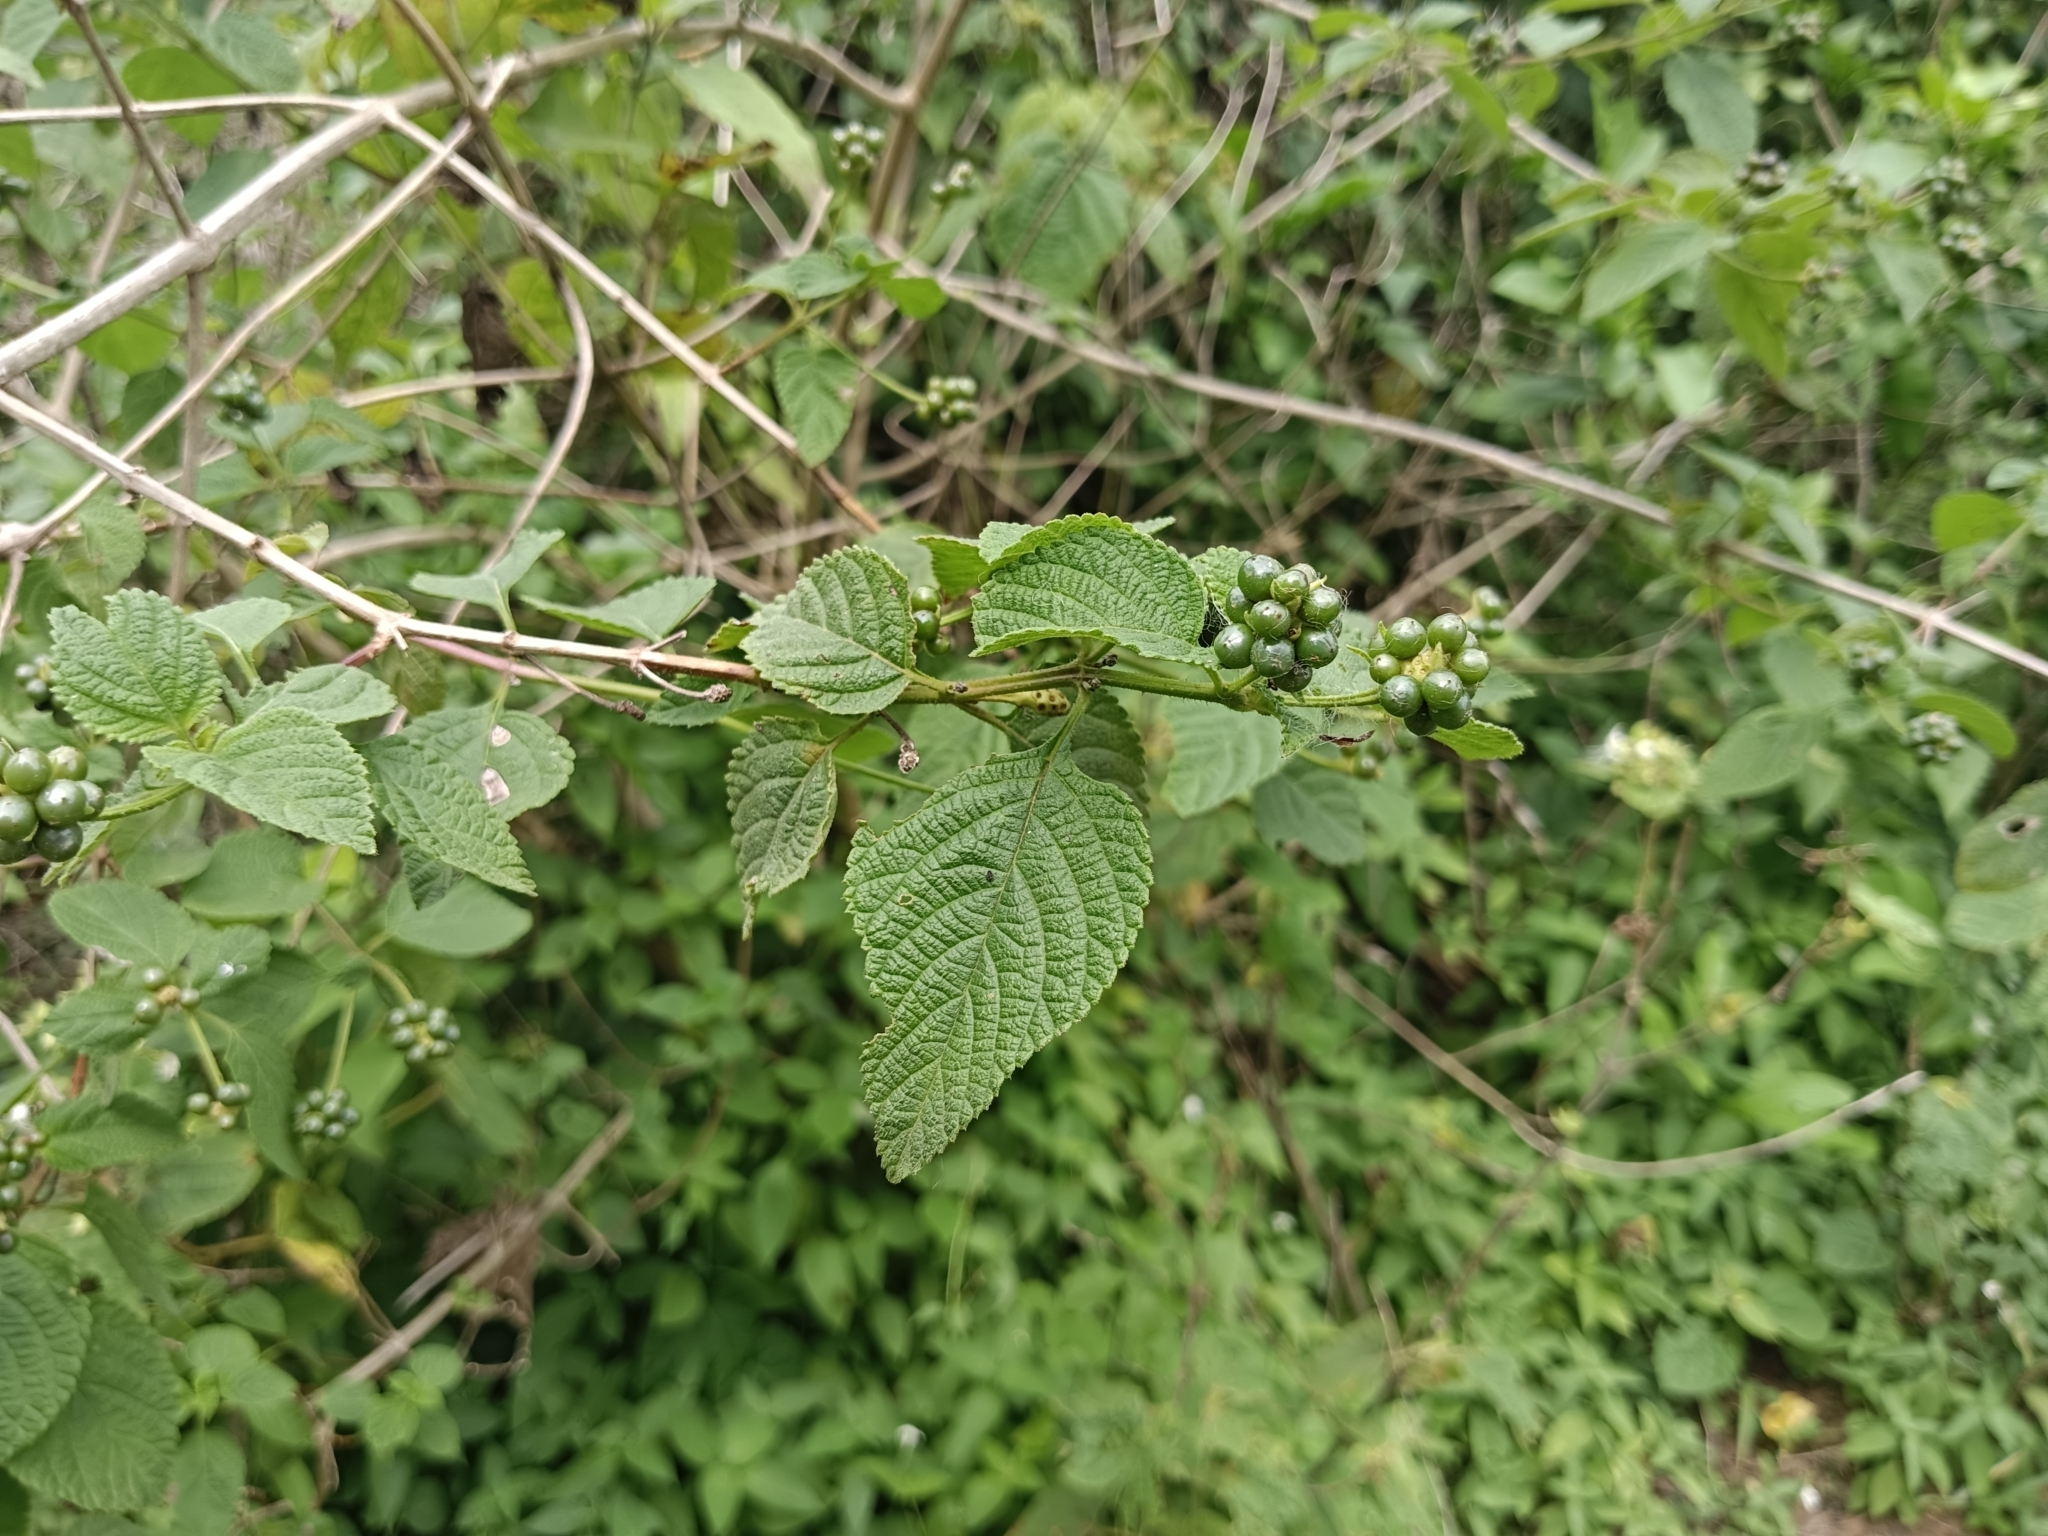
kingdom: Plantae
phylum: Tracheophyta
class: Magnoliopsida
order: Lamiales
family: Verbenaceae
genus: Lantana
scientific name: Lantana camara
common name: Lantana
